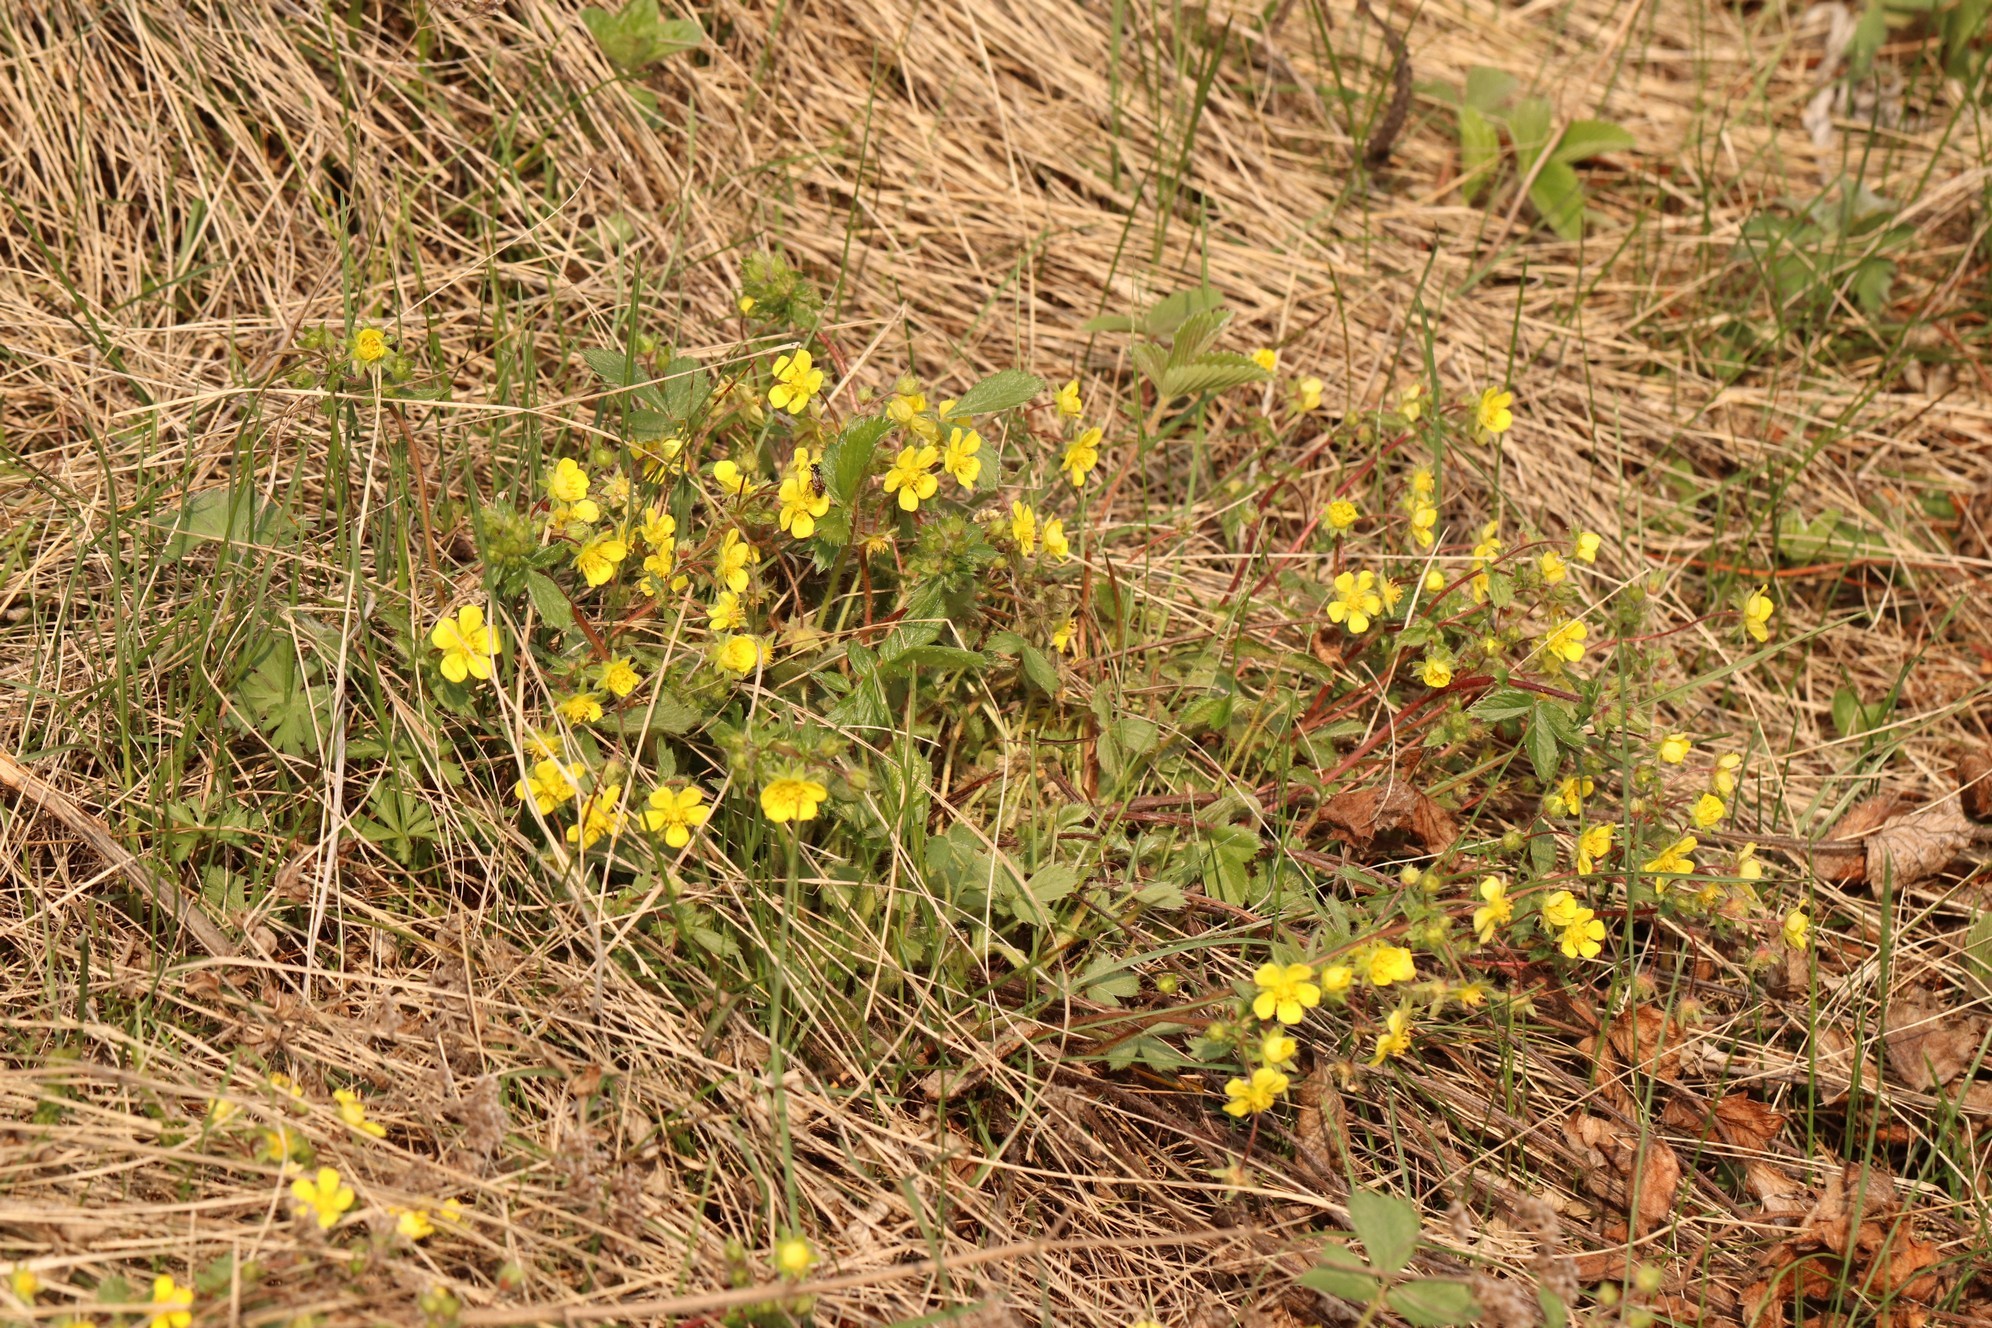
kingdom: Plantae
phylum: Tracheophyta
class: Magnoliopsida
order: Rosales
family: Rosaceae
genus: Potentilla
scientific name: Potentilla fragarioides
